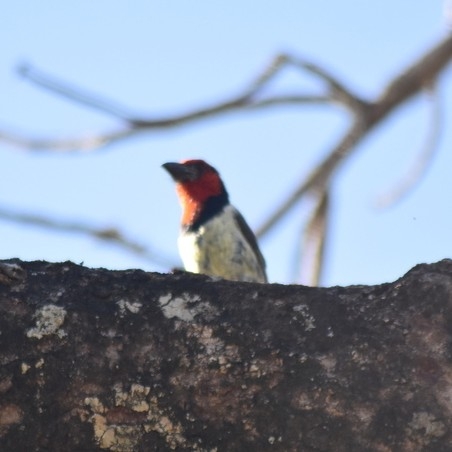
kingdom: Animalia
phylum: Chordata
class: Aves
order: Piciformes
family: Lybiidae
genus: Lybius
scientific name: Lybius torquatus
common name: Black-collared barbet
